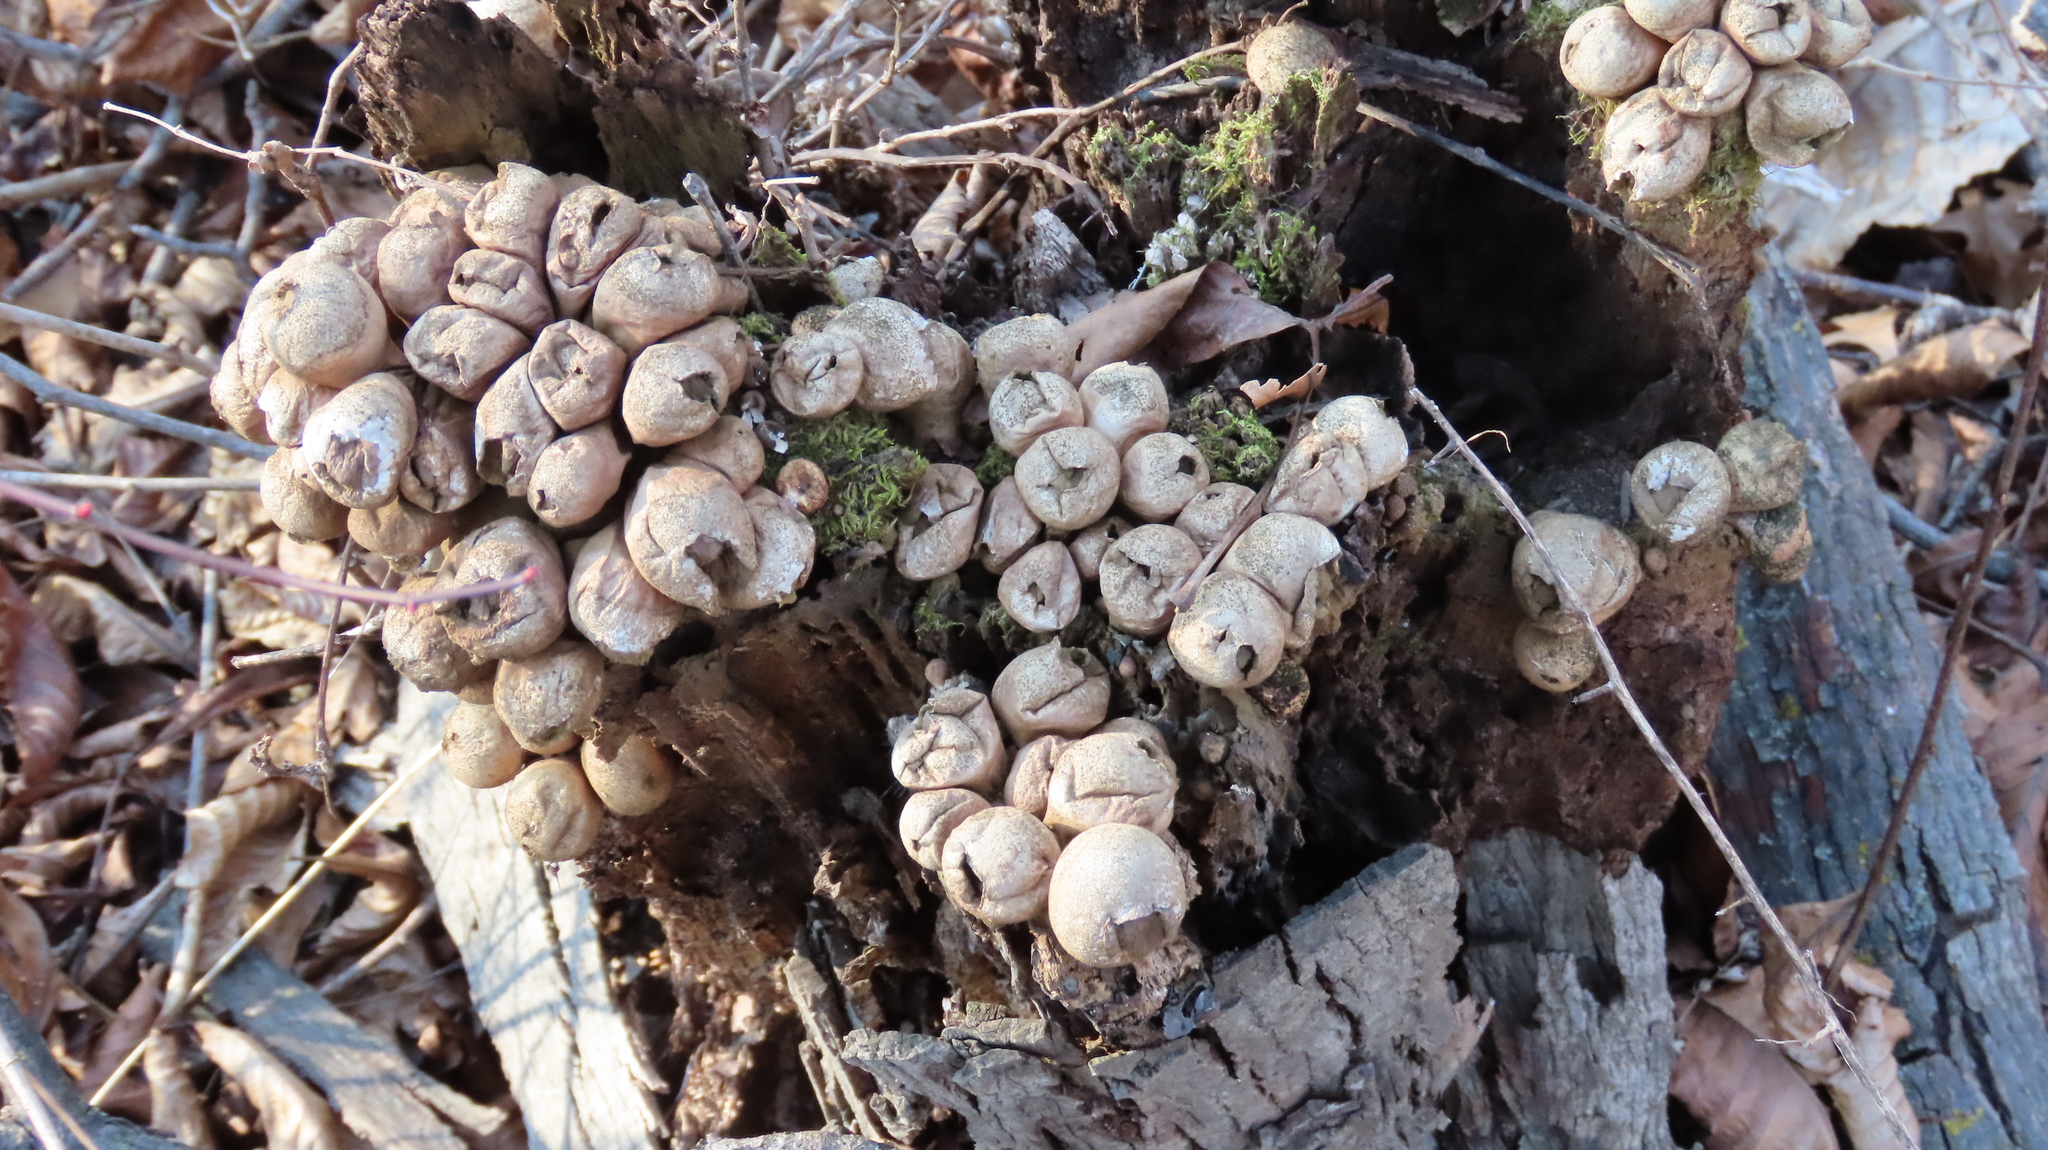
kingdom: Fungi
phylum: Basidiomycota
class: Agaricomycetes
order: Agaricales
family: Lycoperdaceae
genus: Apioperdon
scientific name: Apioperdon pyriforme
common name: Pear-shaped puffball
